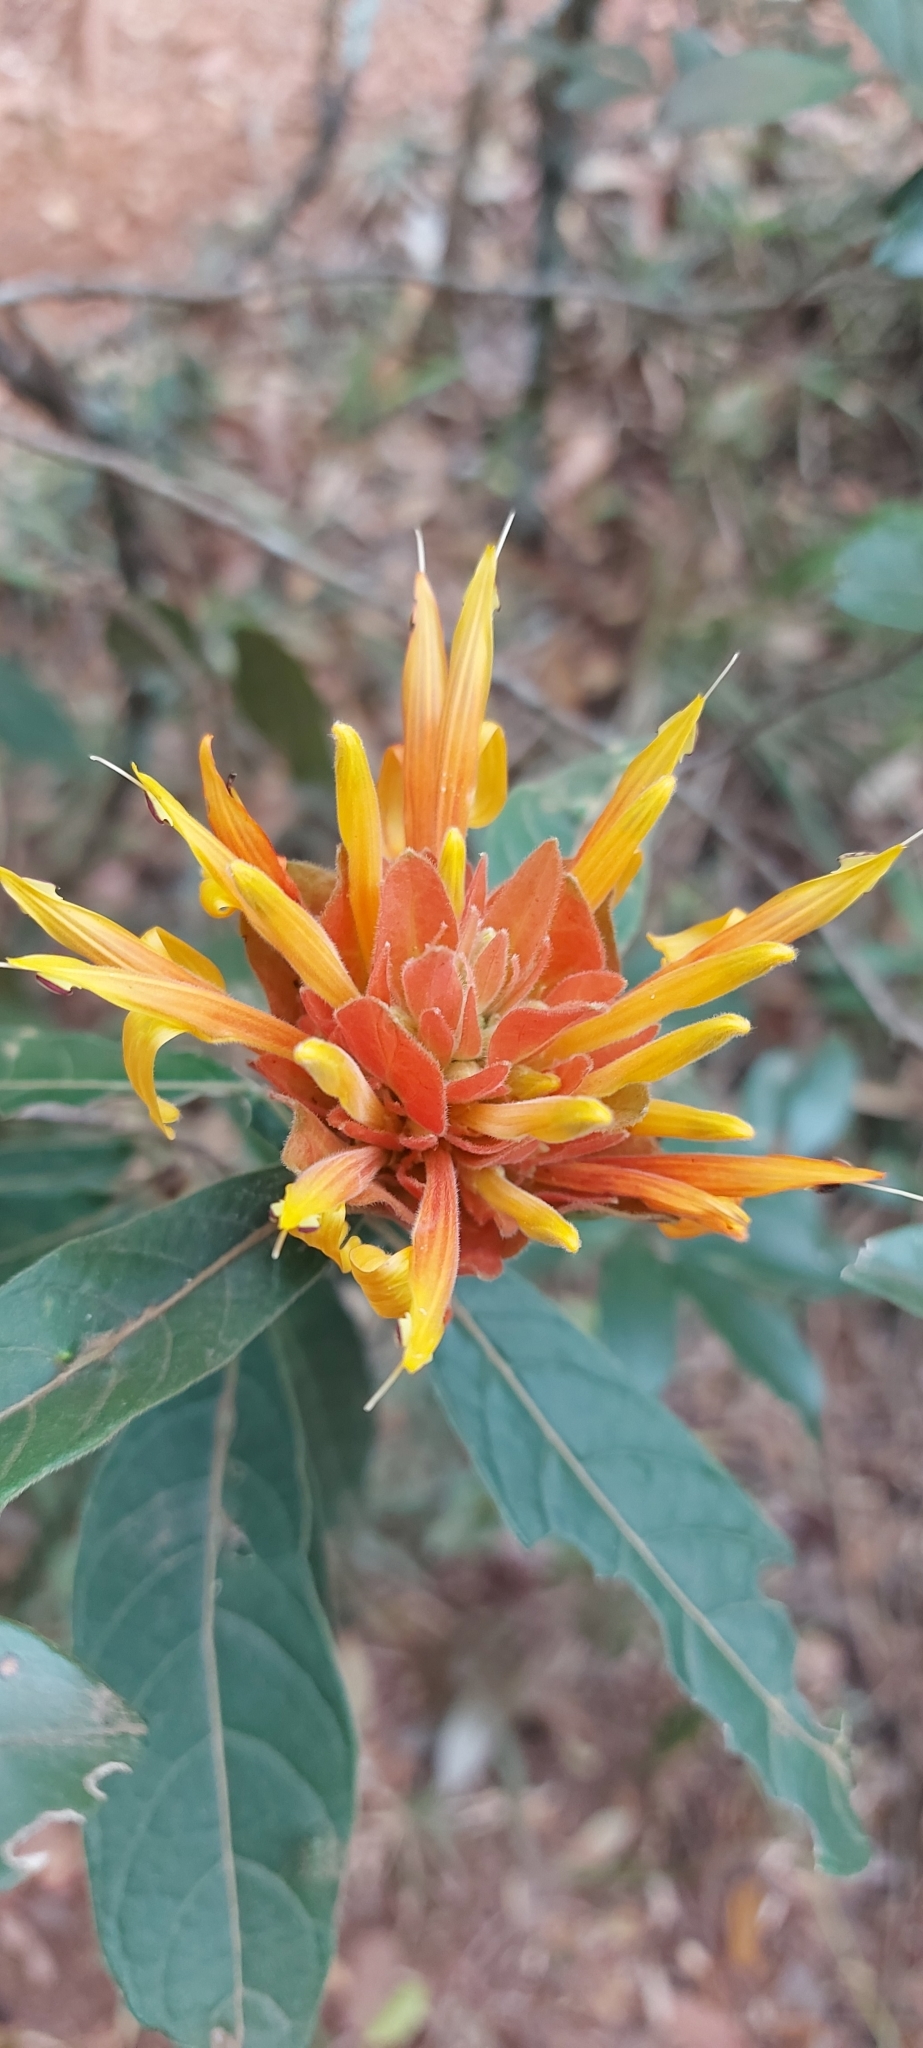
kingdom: Plantae
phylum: Tracheophyta
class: Magnoliopsida
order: Lamiales
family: Acanthaceae
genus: Justicia
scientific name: Justicia riparia
